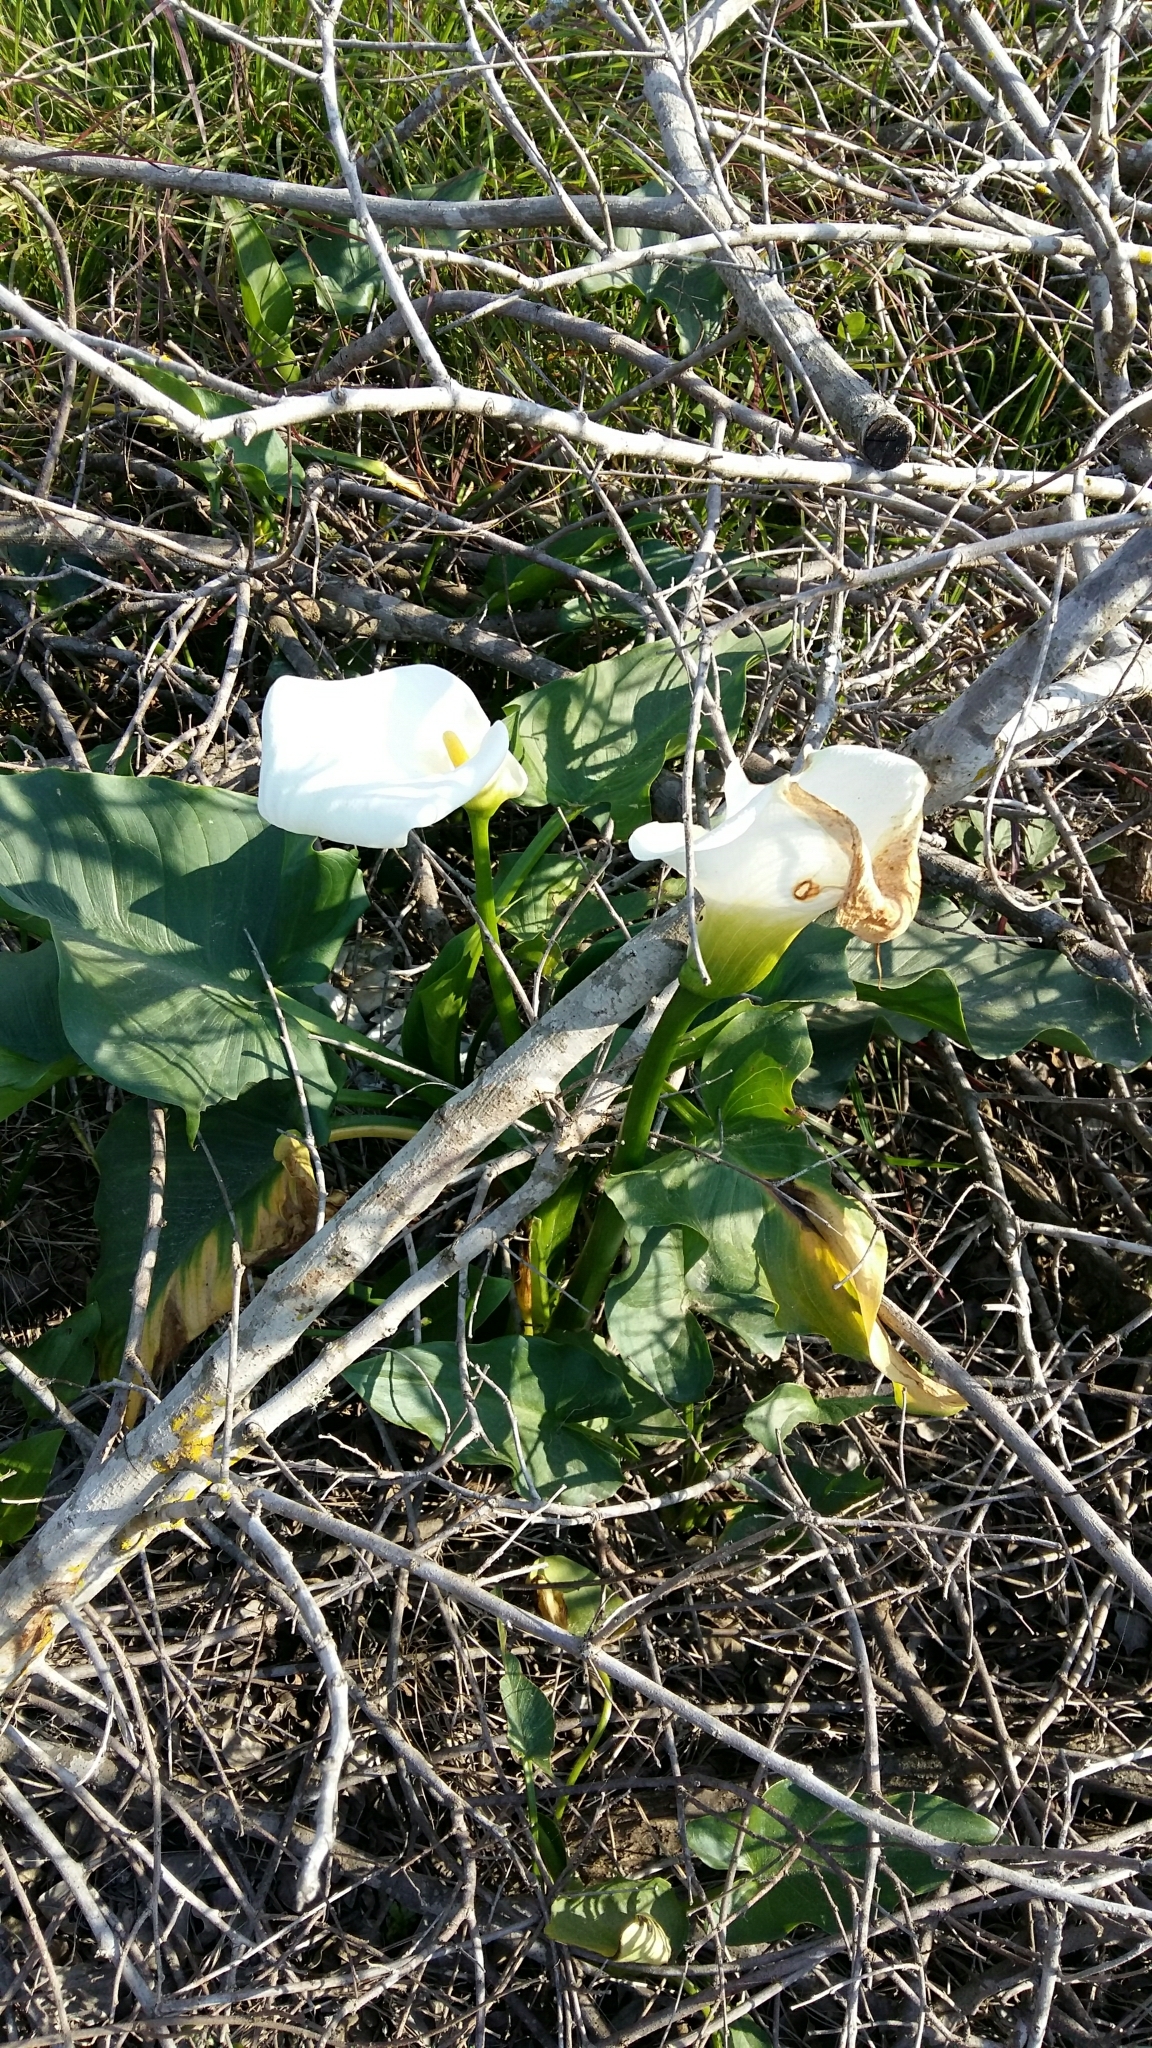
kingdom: Plantae
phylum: Tracheophyta
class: Liliopsida
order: Alismatales
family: Araceae
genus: Zantedeschia
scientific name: Zantedeschia aethiopica
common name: Altar-lily
